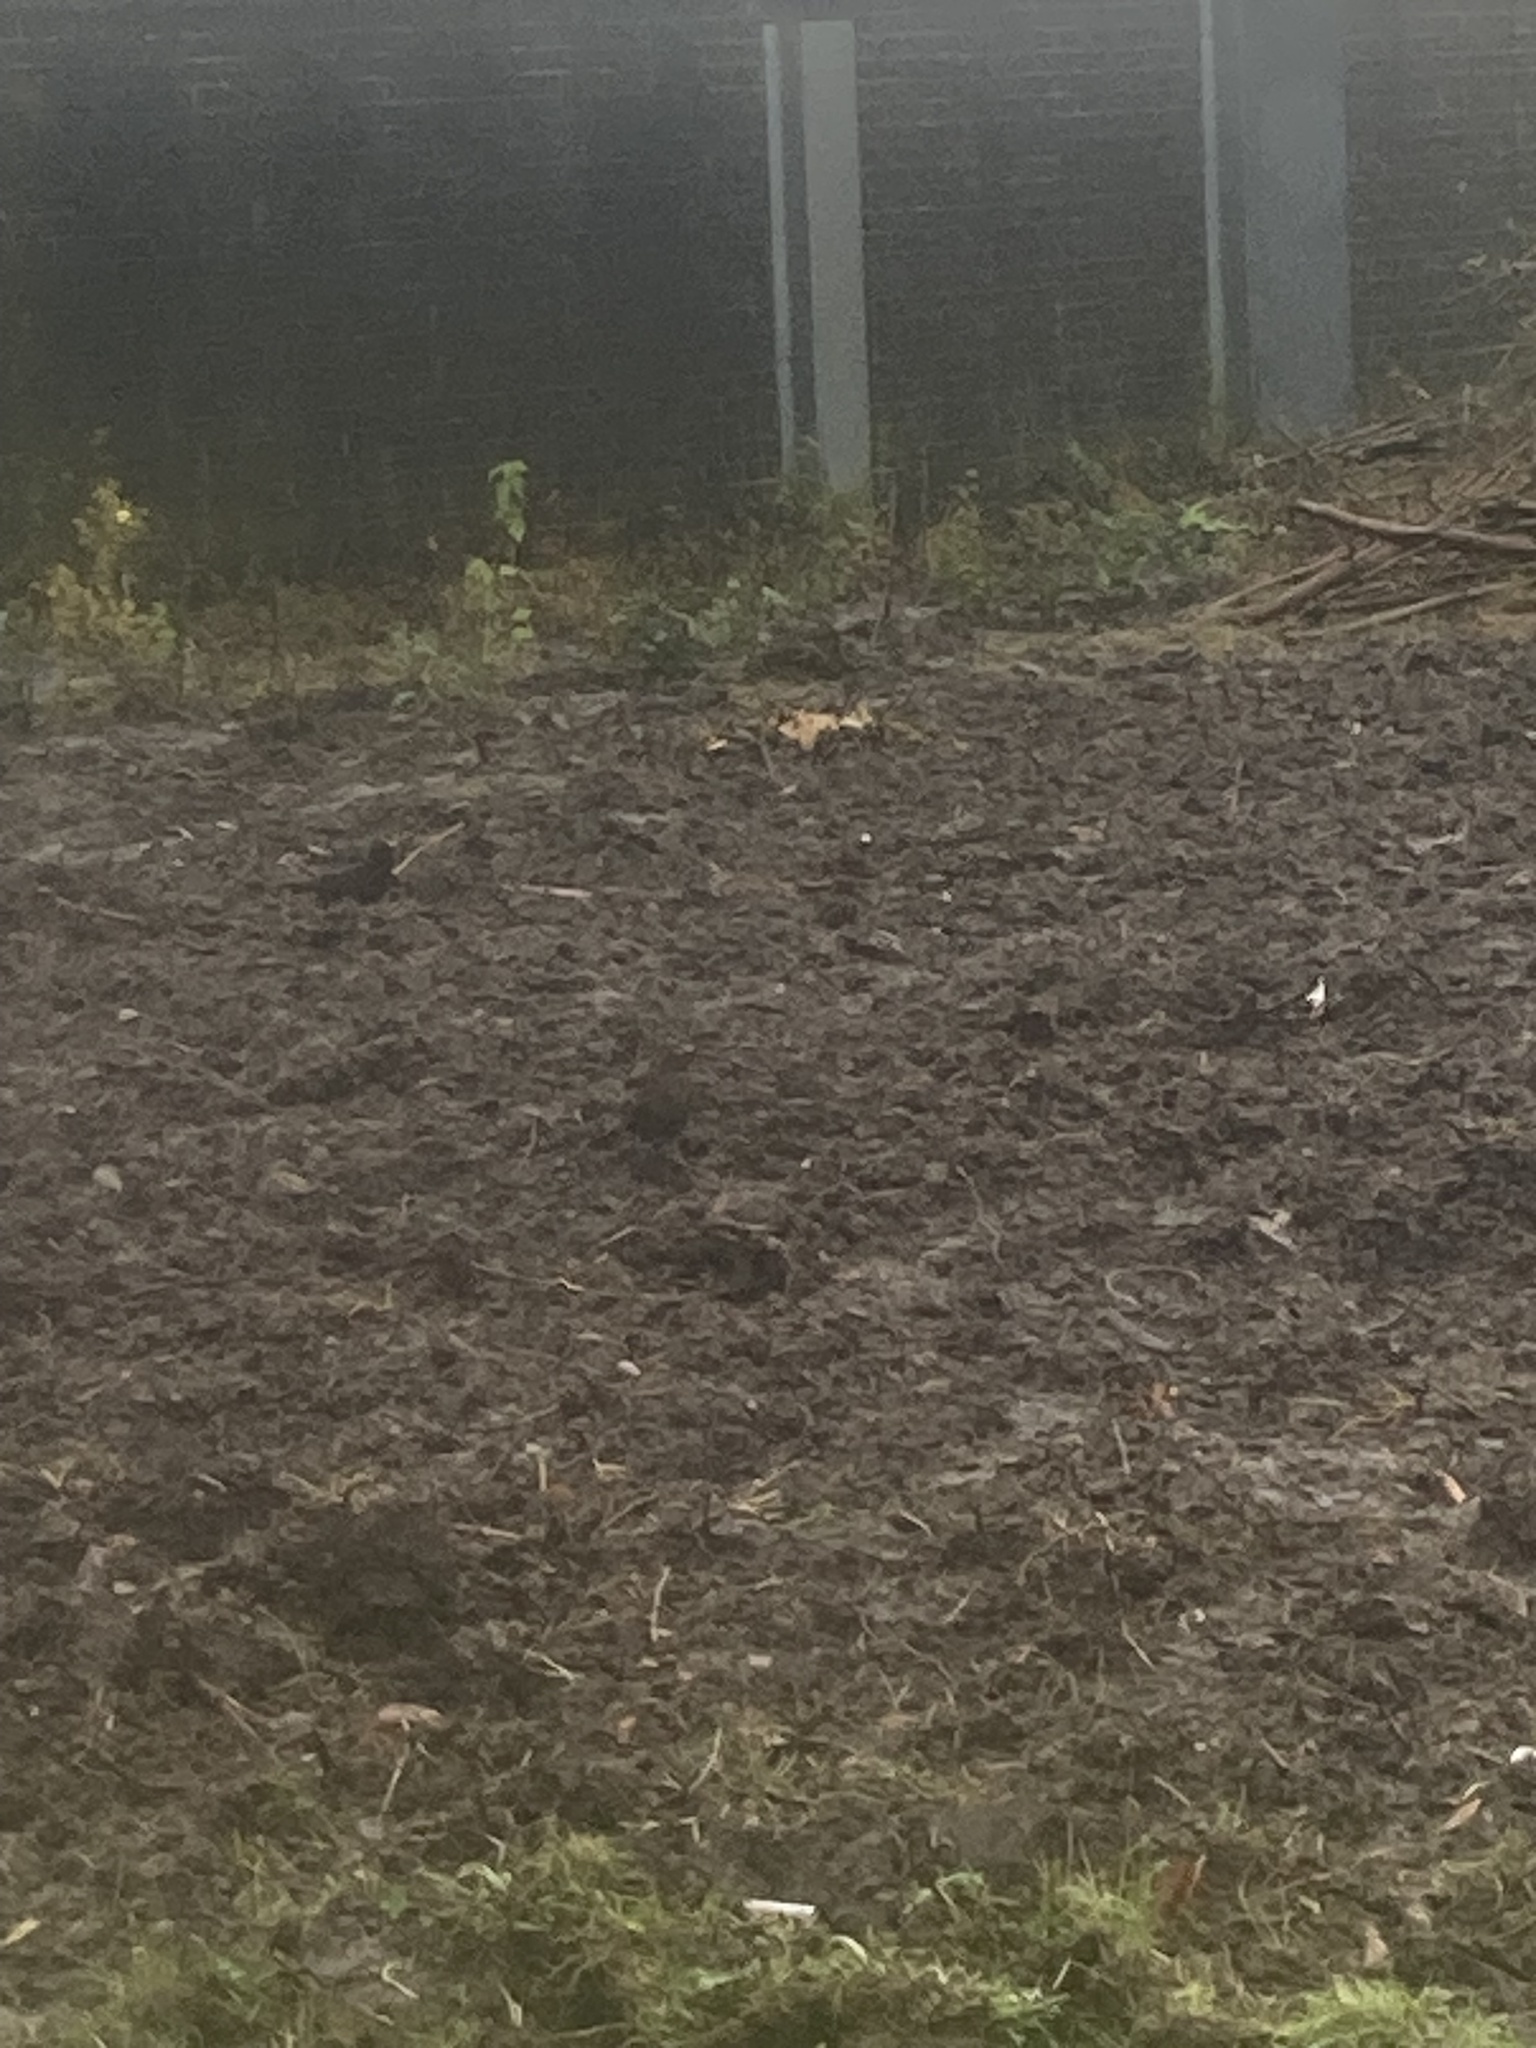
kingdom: Animalia
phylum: Chordata
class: Aves
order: Passeriformes
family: Turdidae
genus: Turdus
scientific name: Turdus merula
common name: Common blackbird
